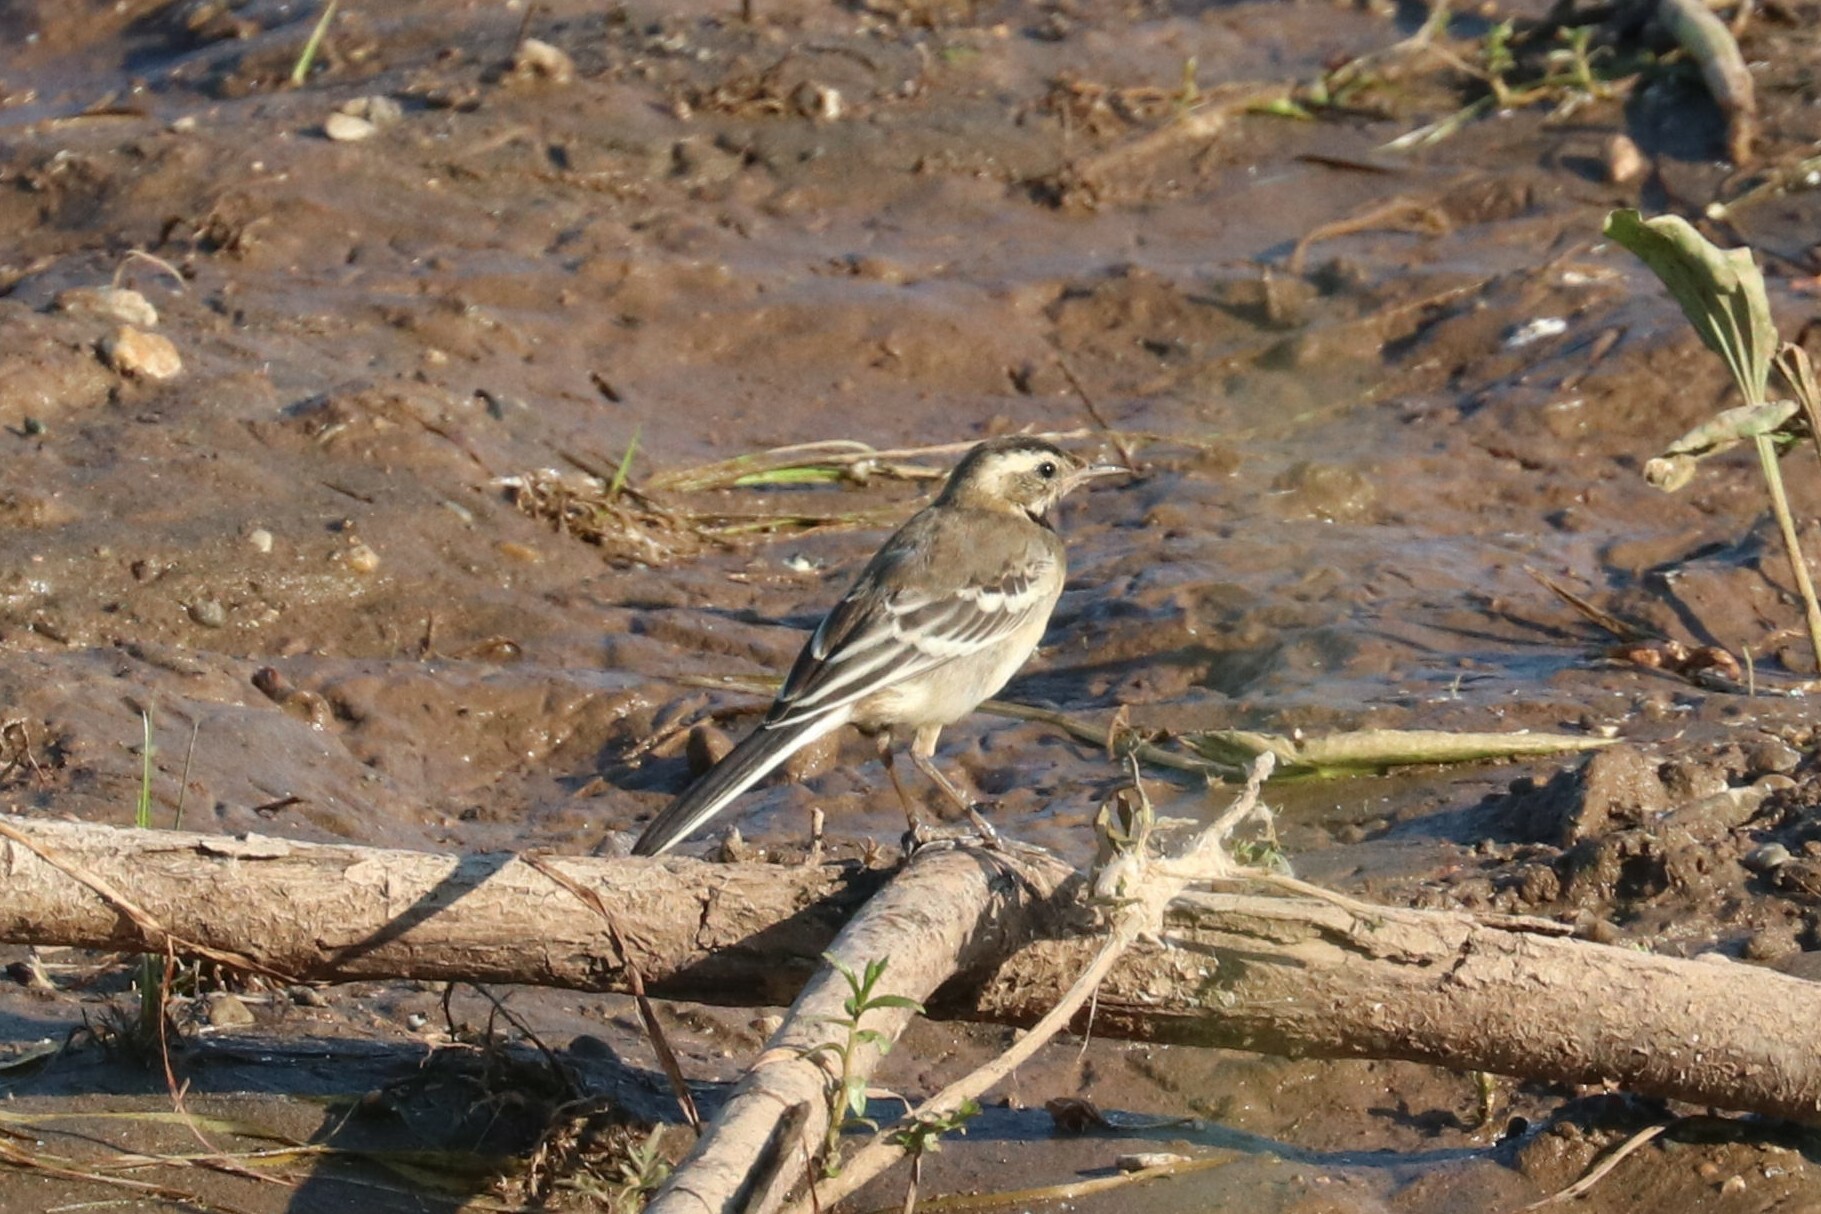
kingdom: Animalia
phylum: Chordata
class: Aves
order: Passeriformes
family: Motacillidae
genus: Motacilla
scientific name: Motacilla alba
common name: White wagtail
